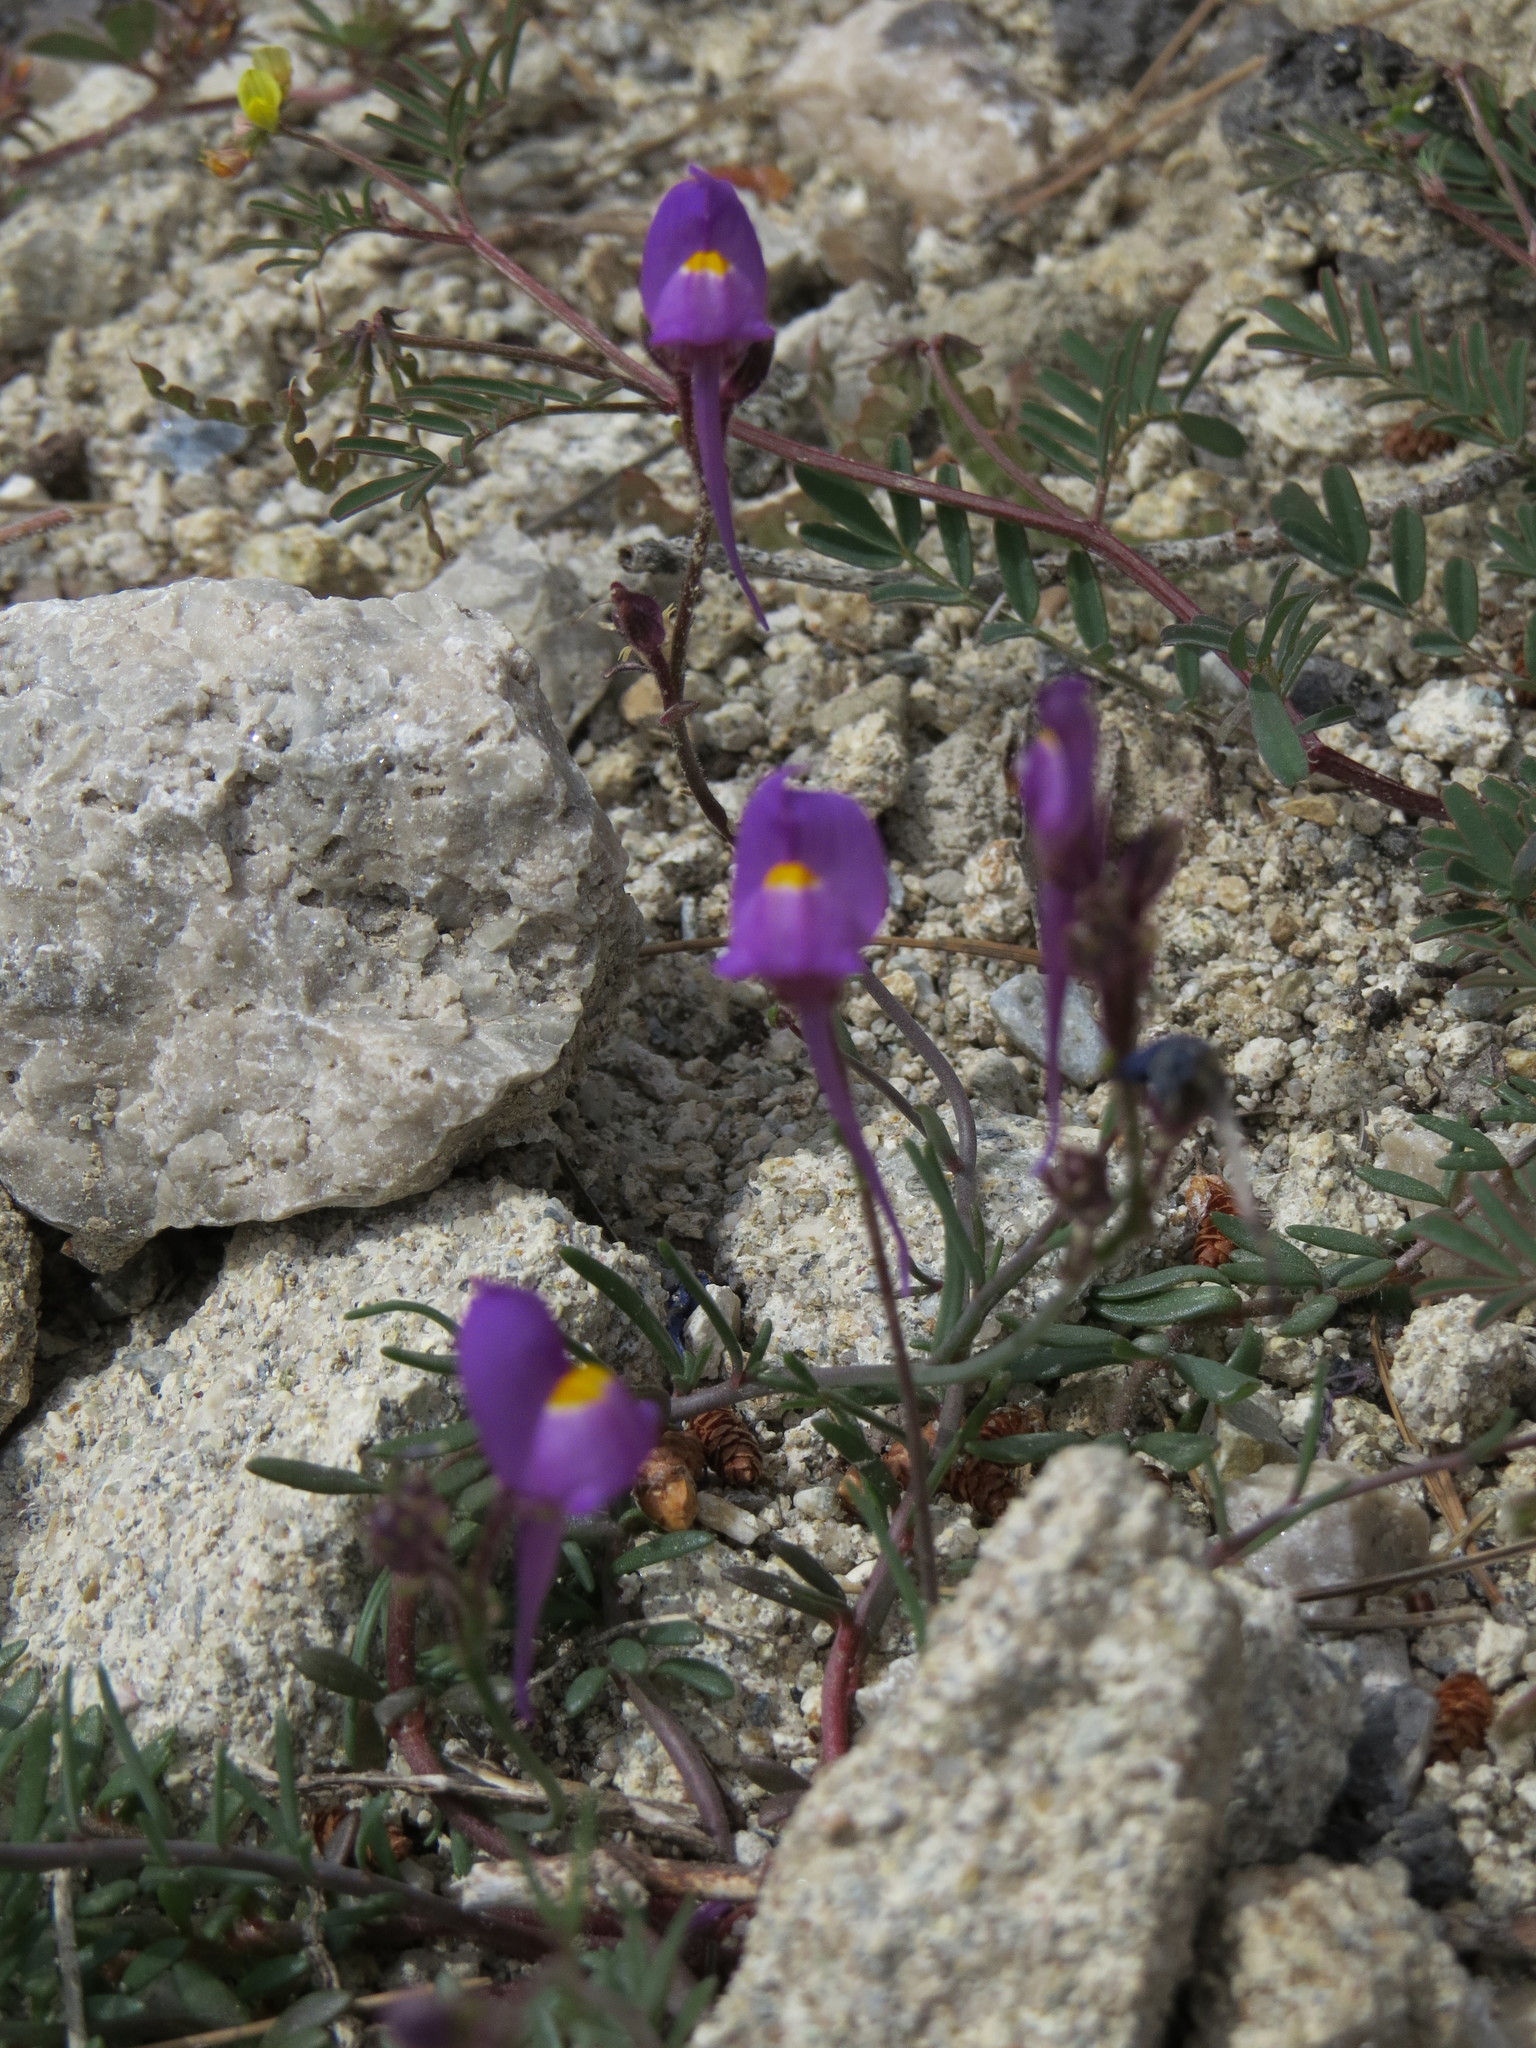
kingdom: Plantae
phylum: Tracheophyta
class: Magnoliopsida
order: Lamiales
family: Plantaginaceae
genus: Linaria
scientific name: Linaria becerrae
